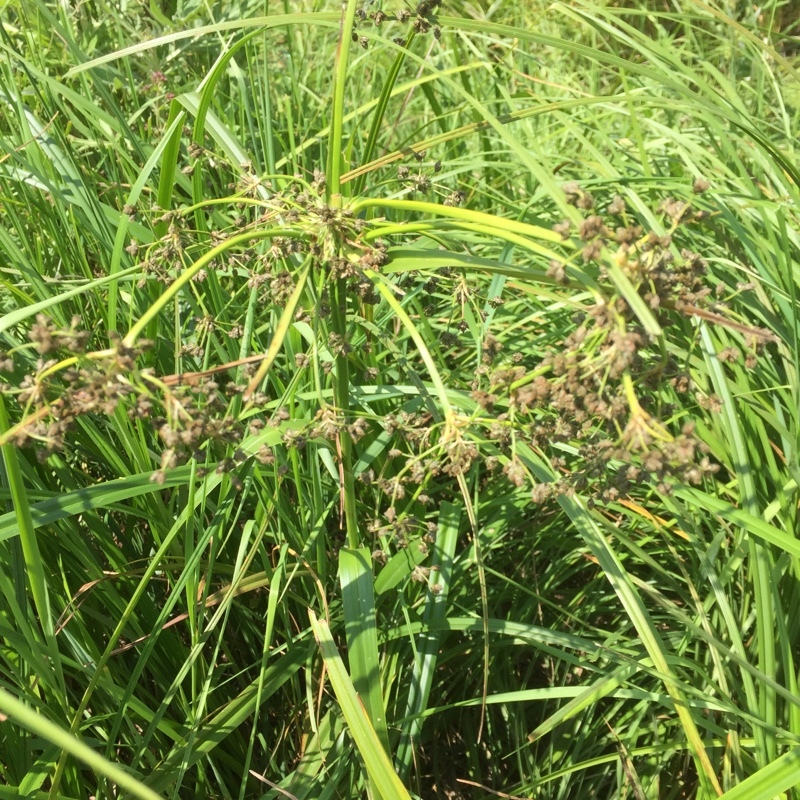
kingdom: Plantae
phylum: Tracheophyta
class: Liliopsida
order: Poales
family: Cyperaceae
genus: Scirpus
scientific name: Scirpus sylvaticus
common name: Wood club-rush
